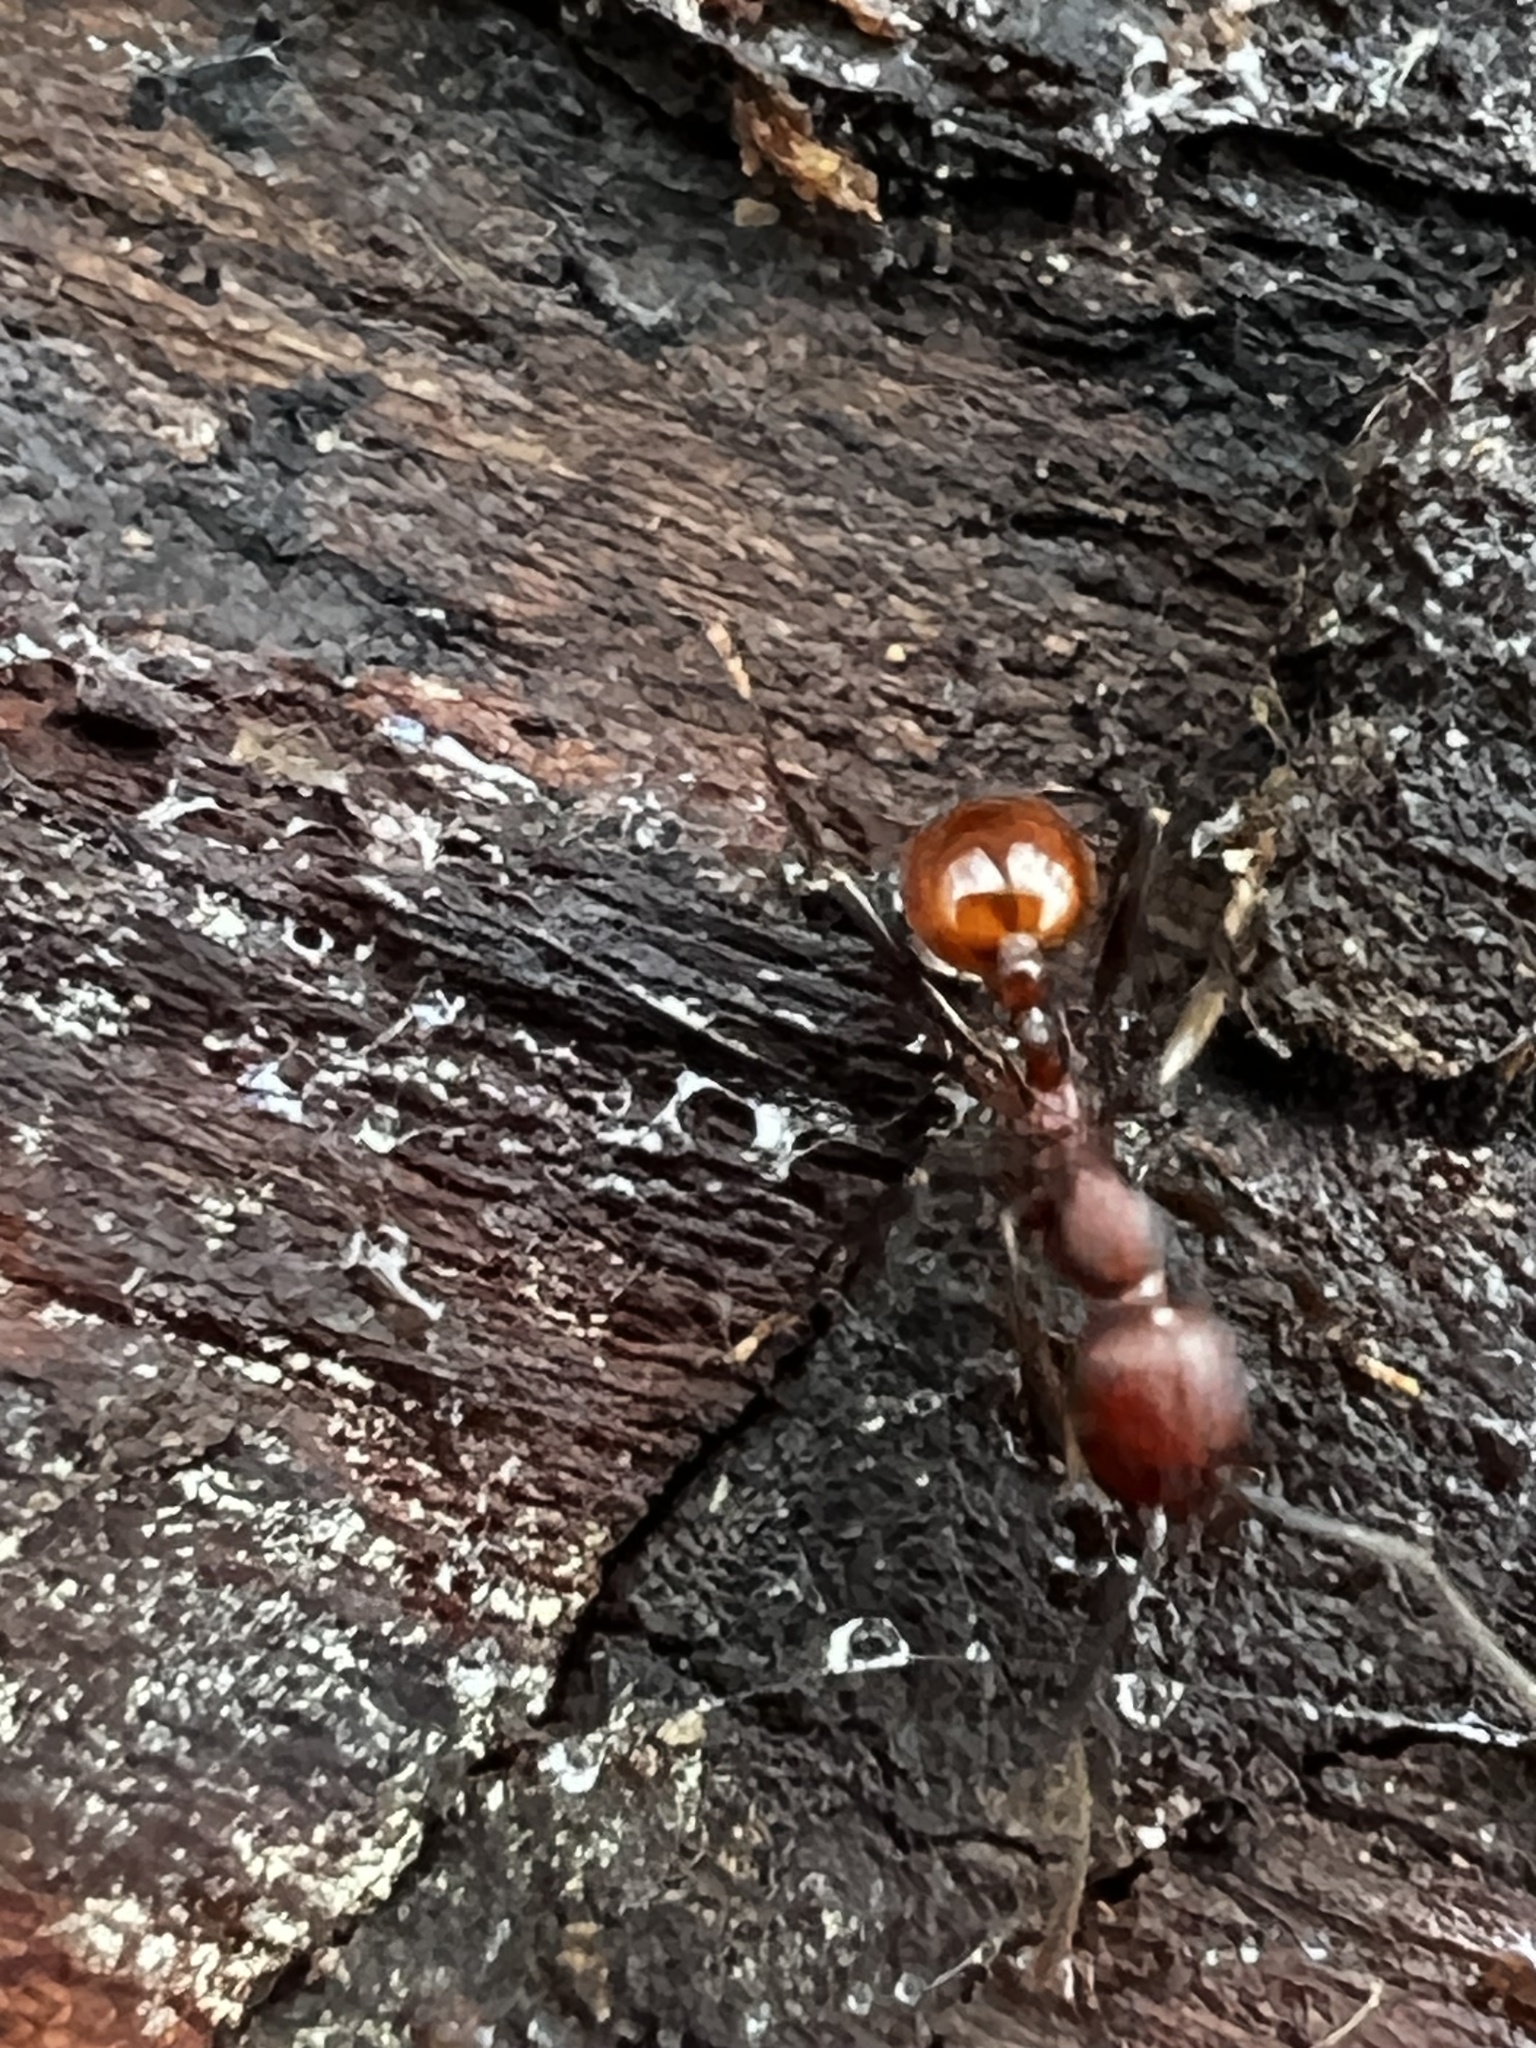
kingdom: Animalia
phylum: Arthropoda
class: Insecta
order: Hymenoptera
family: Formicidae
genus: Aphaenogaster
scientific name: Aphaenogaster tennesseensis
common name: Tennessee thread-waisted ant
